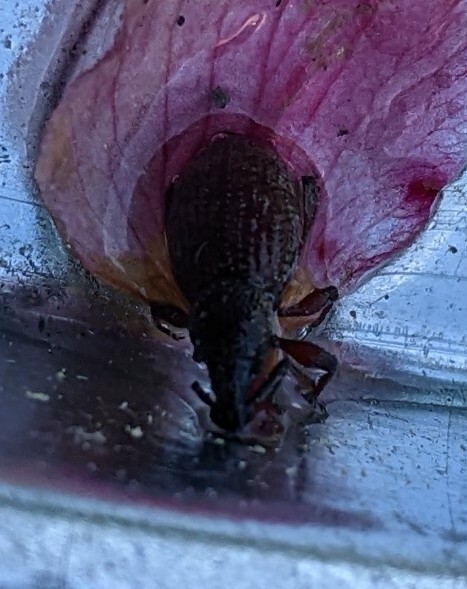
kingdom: Animalia
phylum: Arthropoda
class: Insecta
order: Coleoptera
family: Curculionidae
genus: Otiorhynchus
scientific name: Otiorhynchus sulcatus
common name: Black vine weevil
